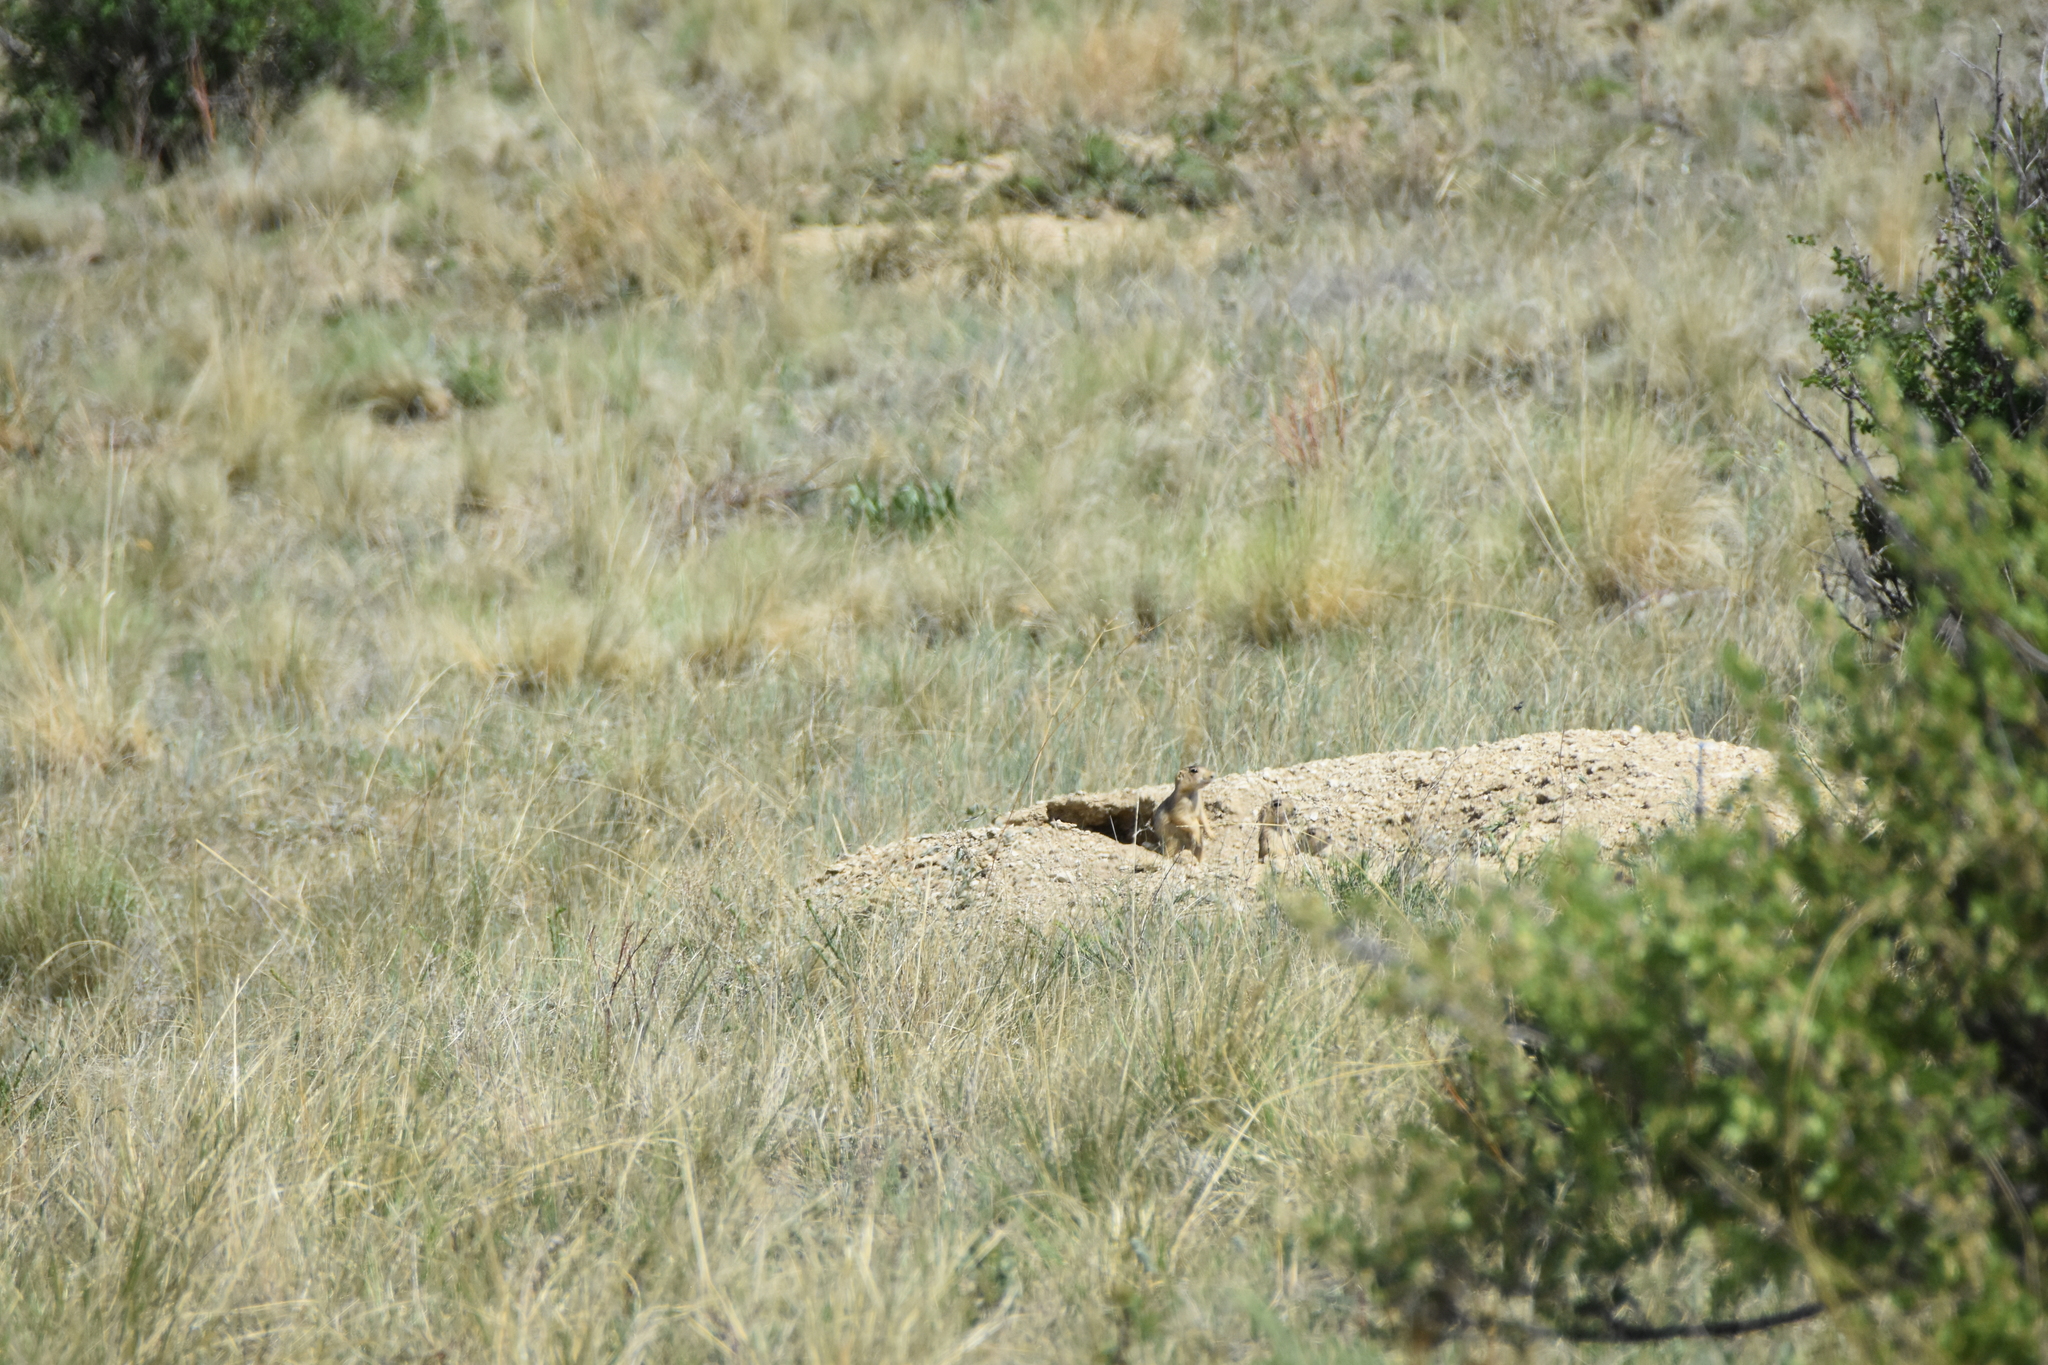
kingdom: Animalia
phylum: Chordata
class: Mammalia
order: Rodentia
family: Sciuridae
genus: Cynomys
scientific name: Cynomys gunnisoni
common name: Gunnison's prairie dog
